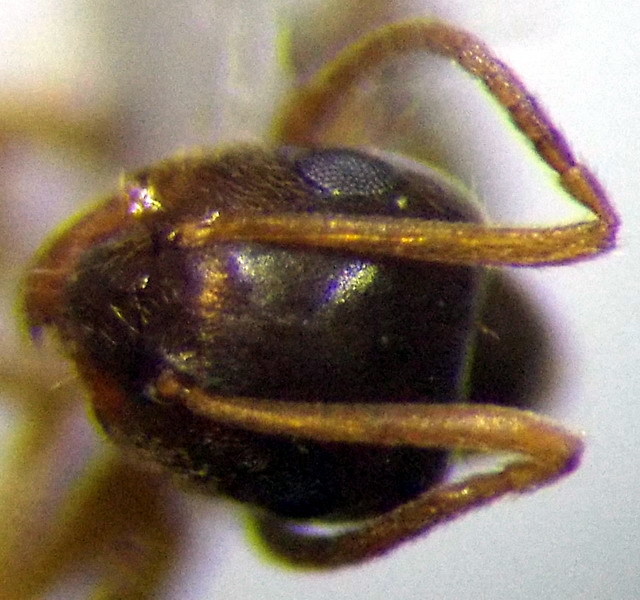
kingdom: Animalia
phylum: Arthropoda
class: Insecta
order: Hymenoptera
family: Formicidae
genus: Lasius
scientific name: Lasius alienus
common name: Alien field ant
